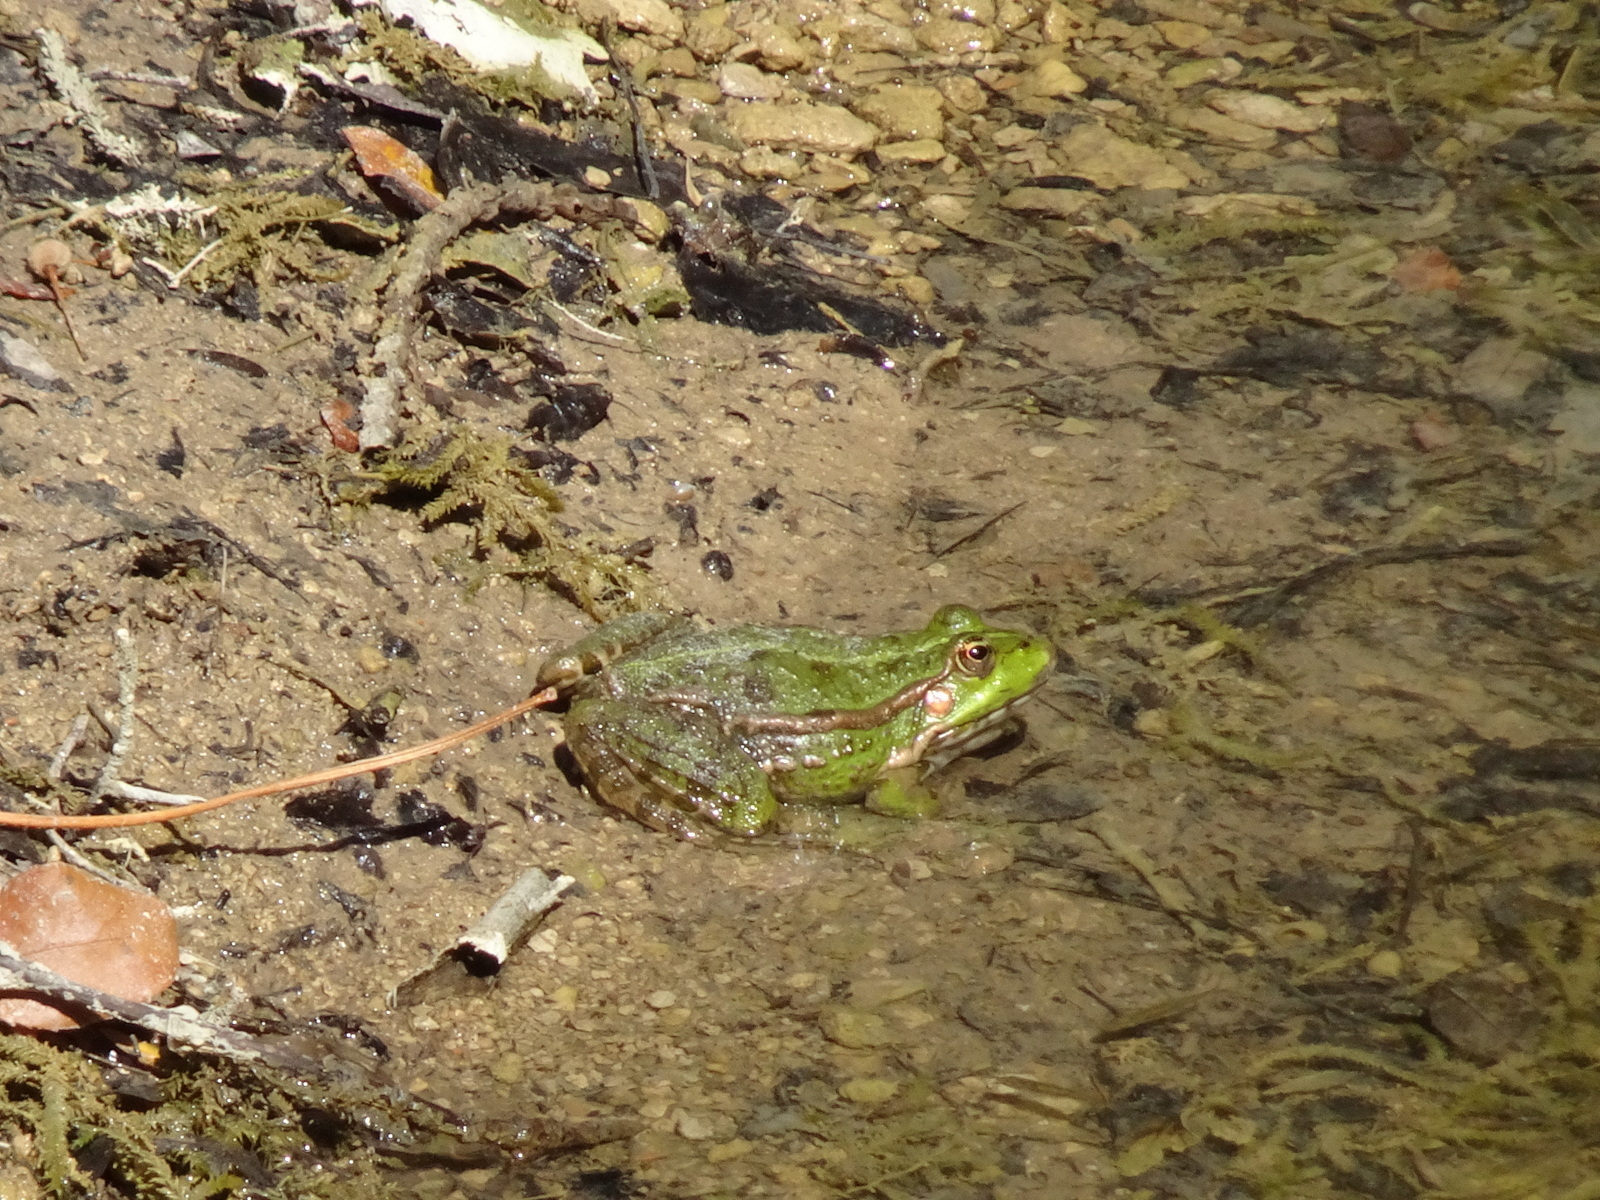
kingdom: Animalia
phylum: Chordata
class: Amphibia
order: Anura
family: Ranidae
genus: Pelophylax
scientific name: Pelophylax
